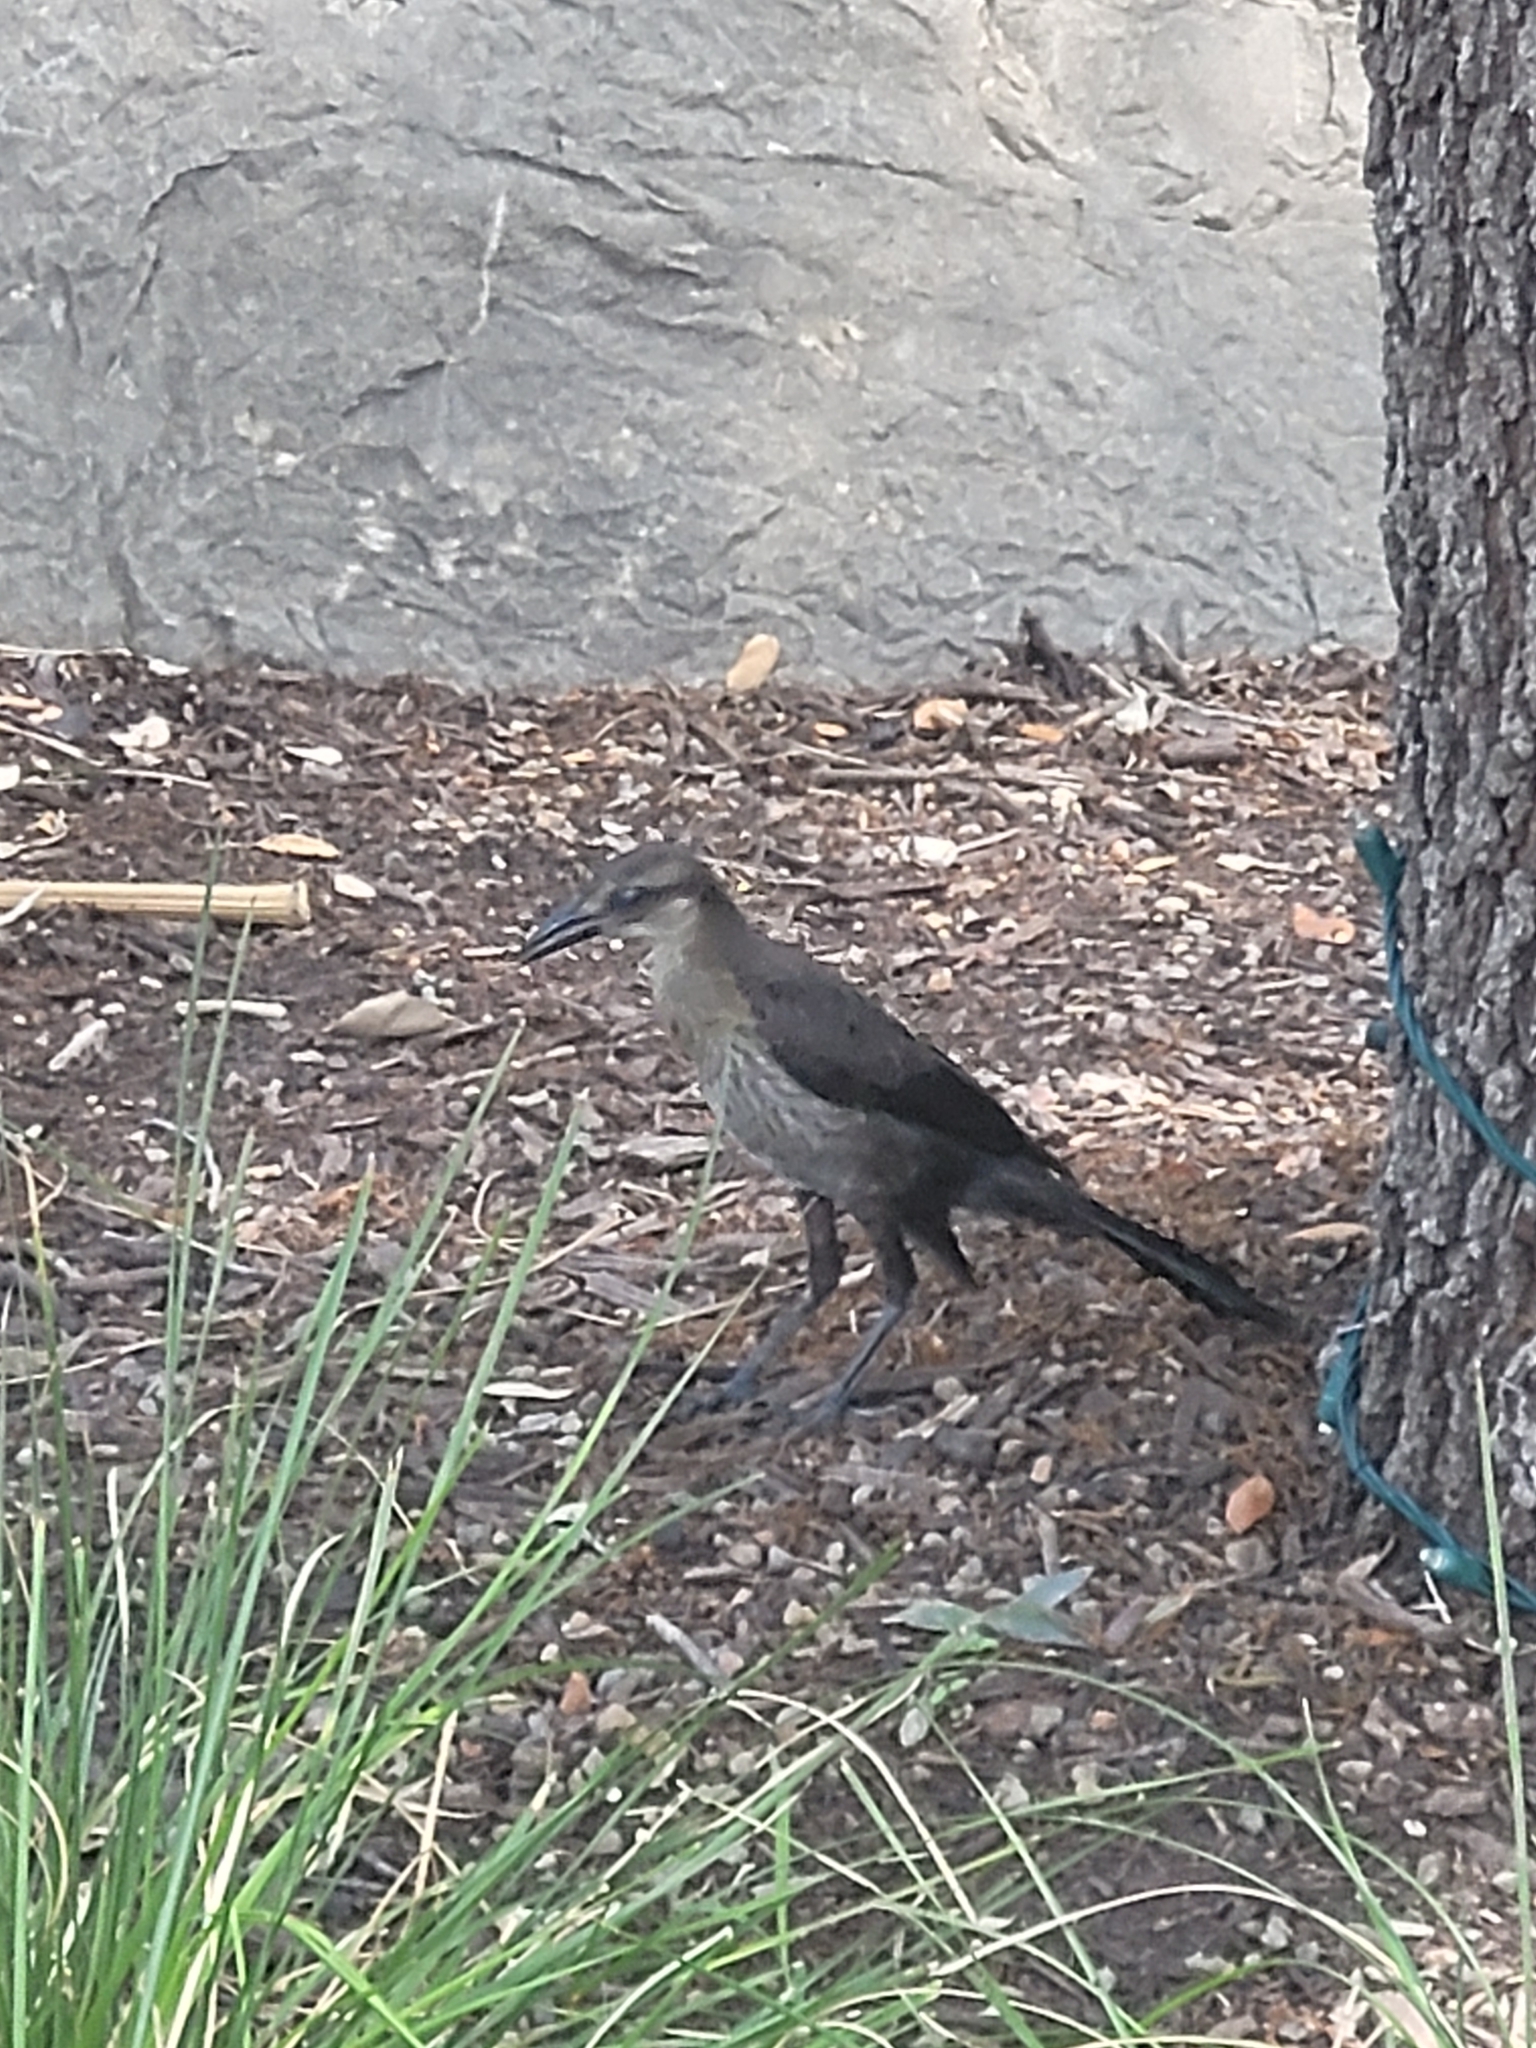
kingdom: Animalia
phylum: Chordata
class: Aves
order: Passeriformes
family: Icteridae
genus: Quiscalus
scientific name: Quiscalus mexicanus
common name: Great-tailed grackle
